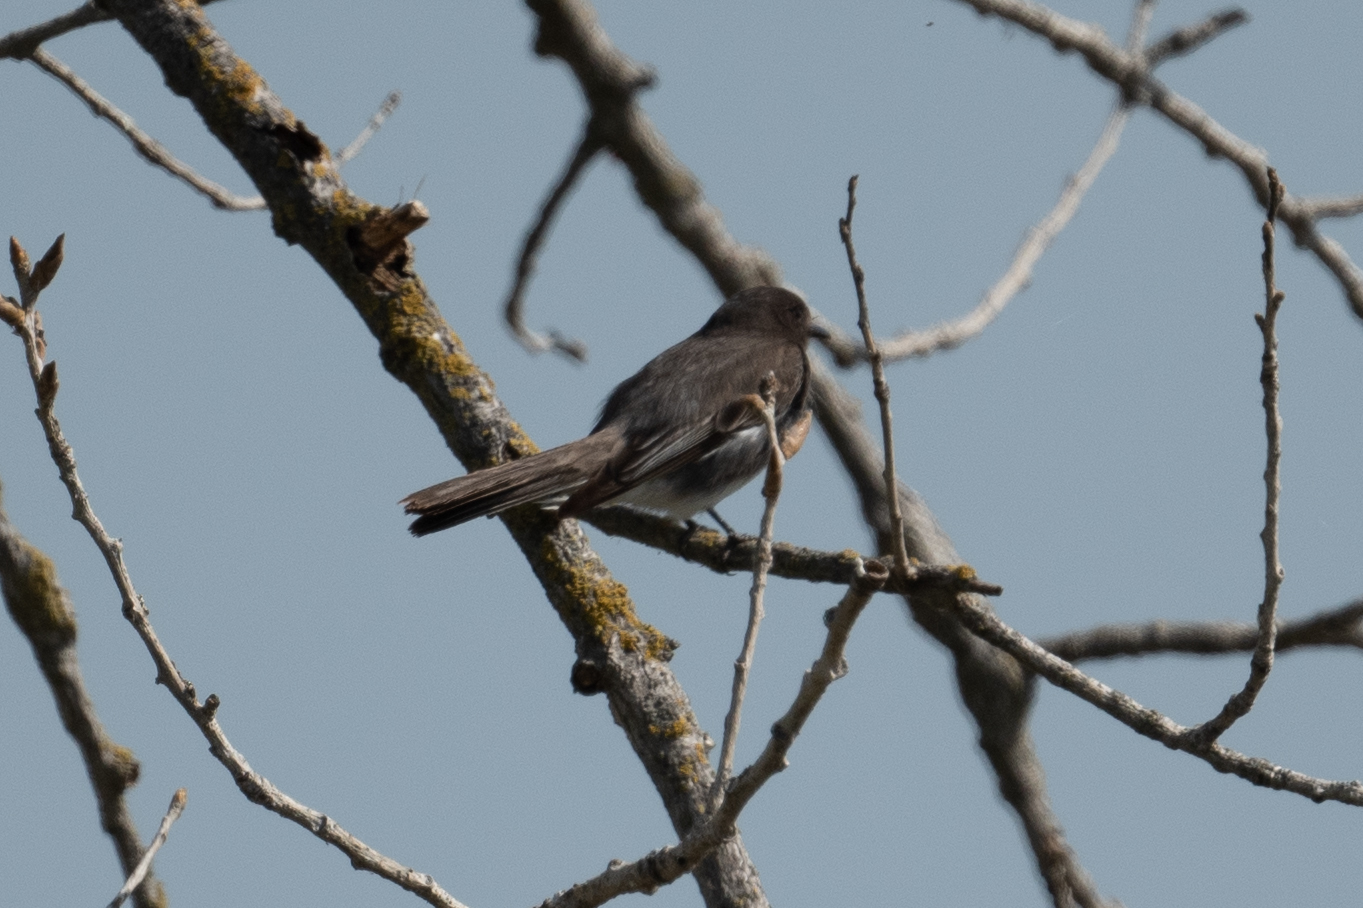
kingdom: Animalia
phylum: Chordata
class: Aves
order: Passeriformes
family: Tyrannidae
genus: Sayornis
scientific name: Sayornis nigricans
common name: Black phoebe
